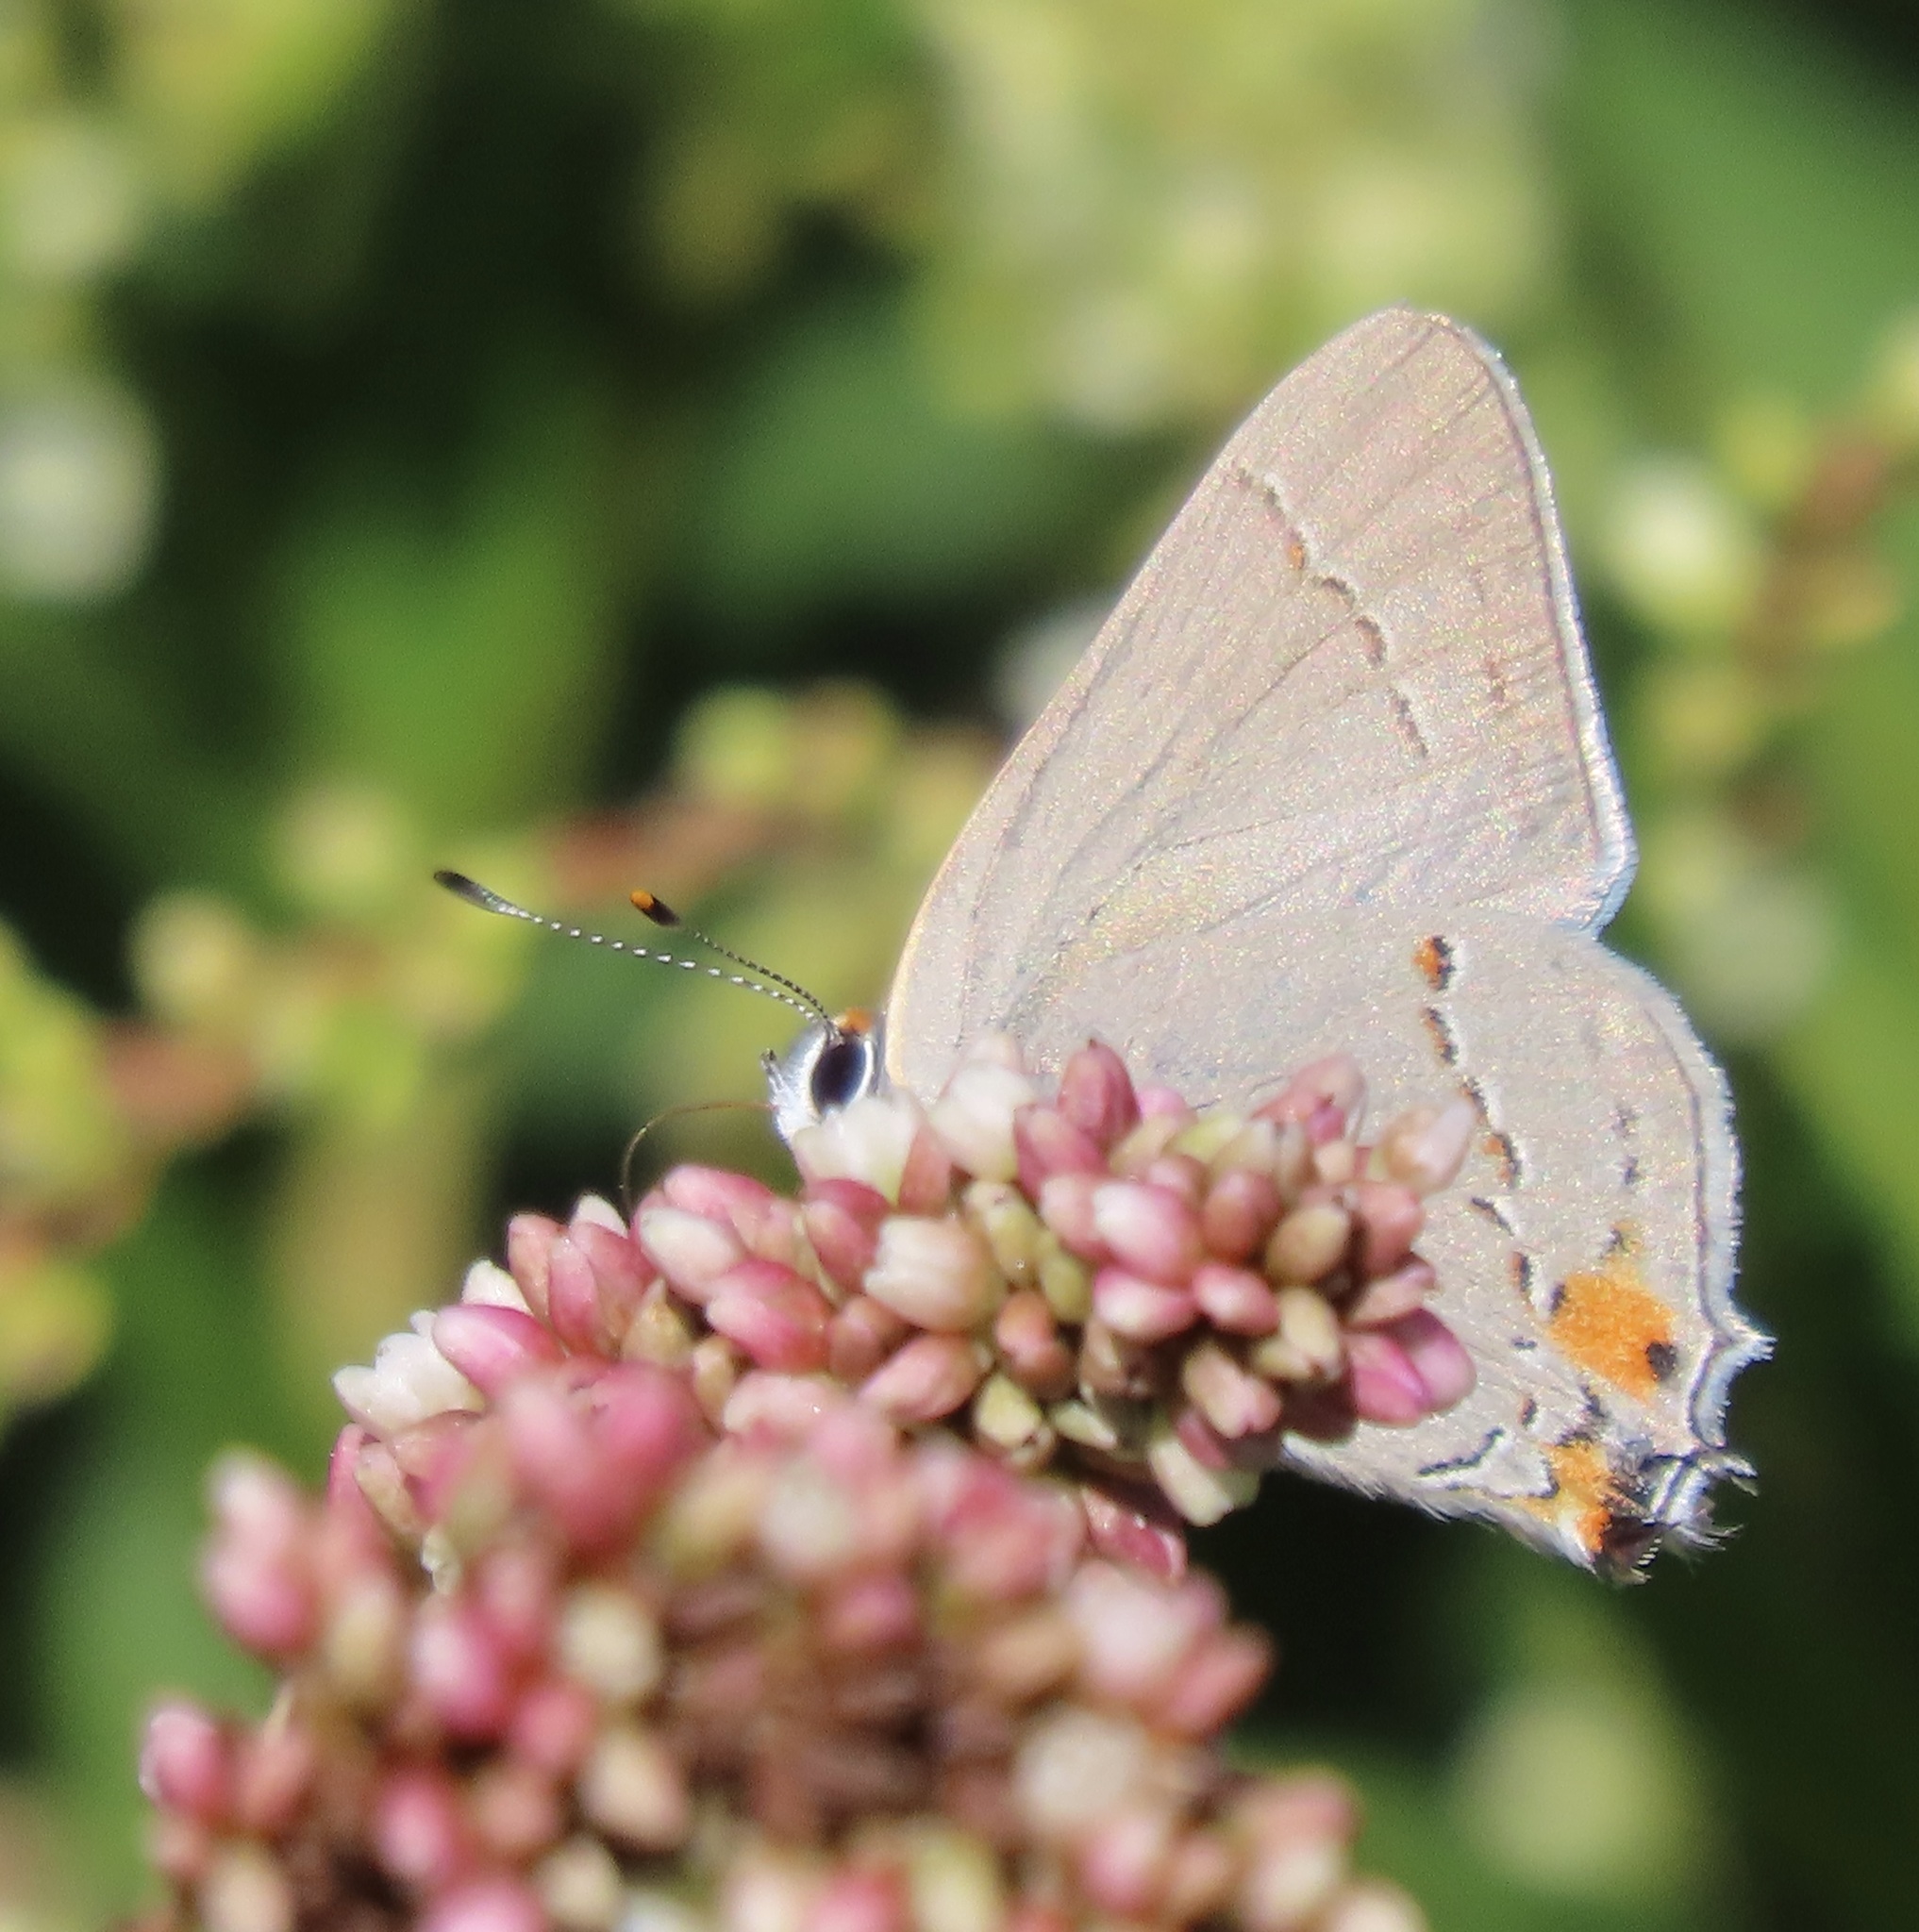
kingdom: Animalia
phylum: Arthropoda
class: Insecta
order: Lepidoptera
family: Lycaenidae
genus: Strymon
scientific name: Strymon melinus
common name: Gray hairstreak
